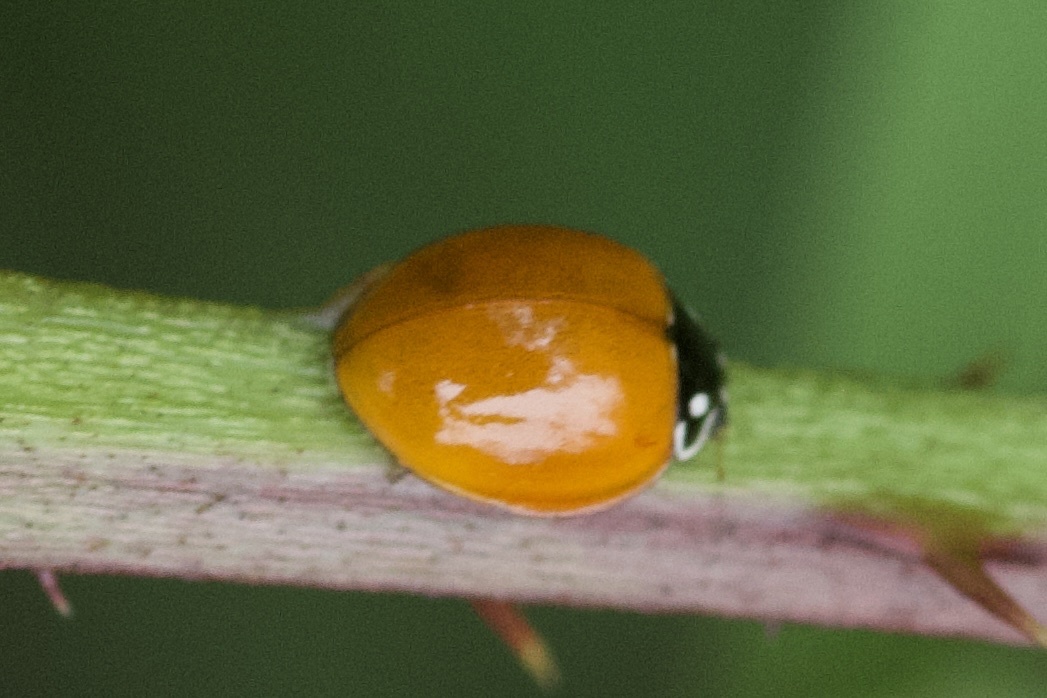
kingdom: Animalia
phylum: Arthropoda
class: Insecta
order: Coleoptera
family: Coccinellidae
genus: Cycloneda
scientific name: Cycloneda sanguinea
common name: Ladybird beetle
